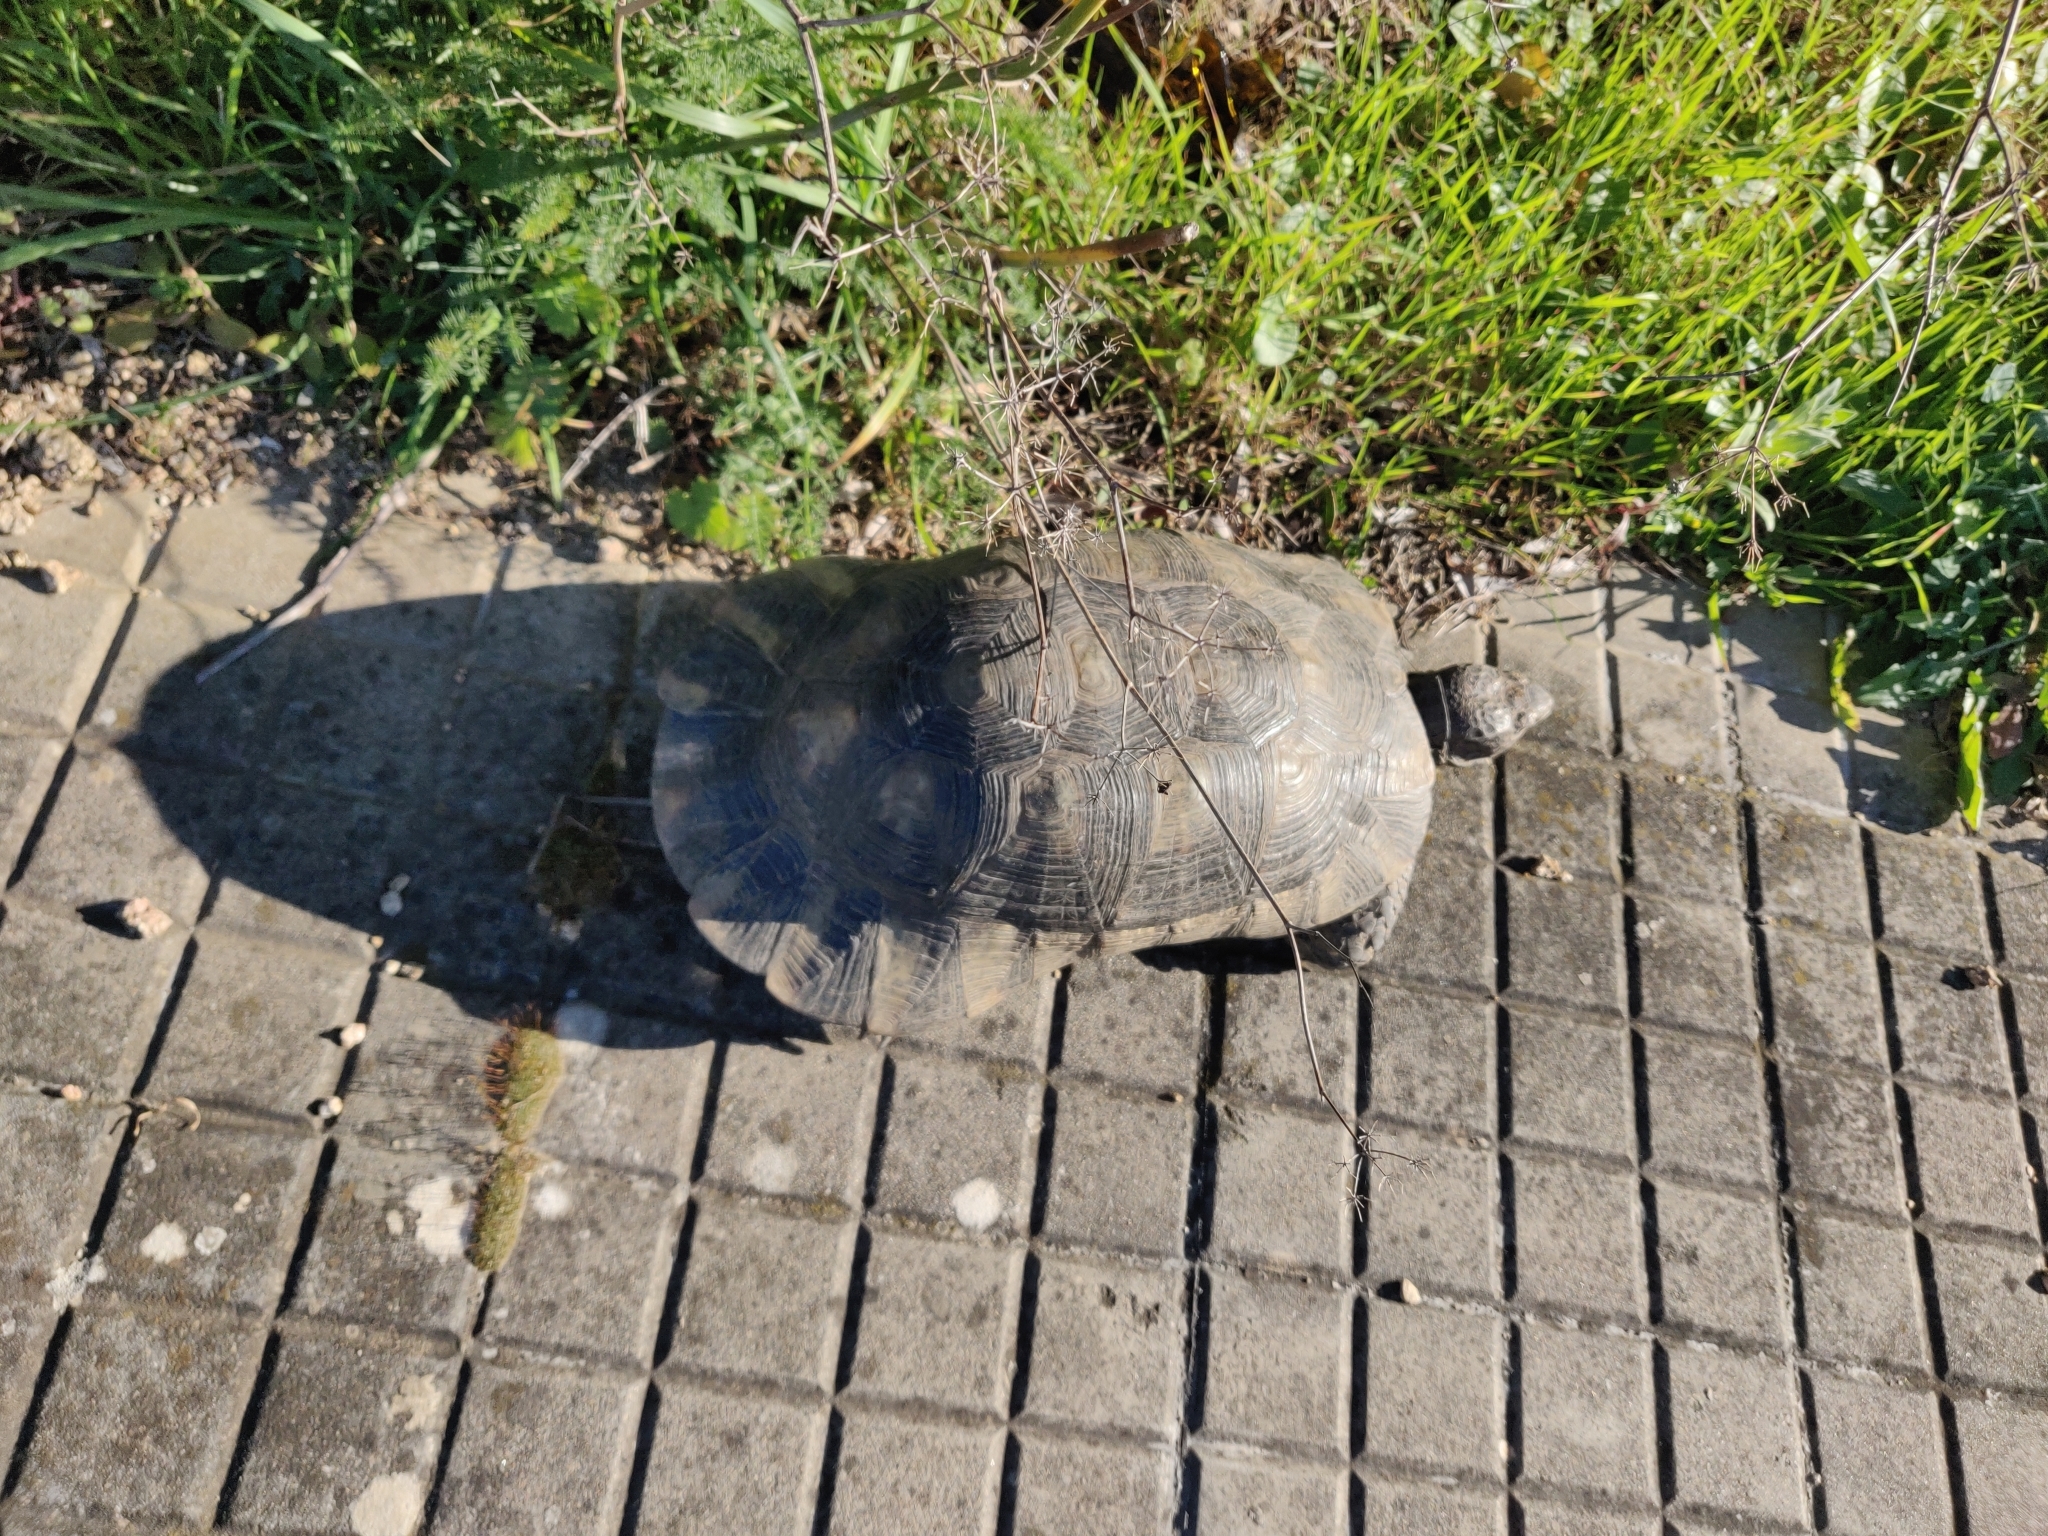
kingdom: Animalia
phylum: Chordata
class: Testudines
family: Testudinidae
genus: Testudo
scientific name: Testudo marginata
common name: Marginated tortoise
